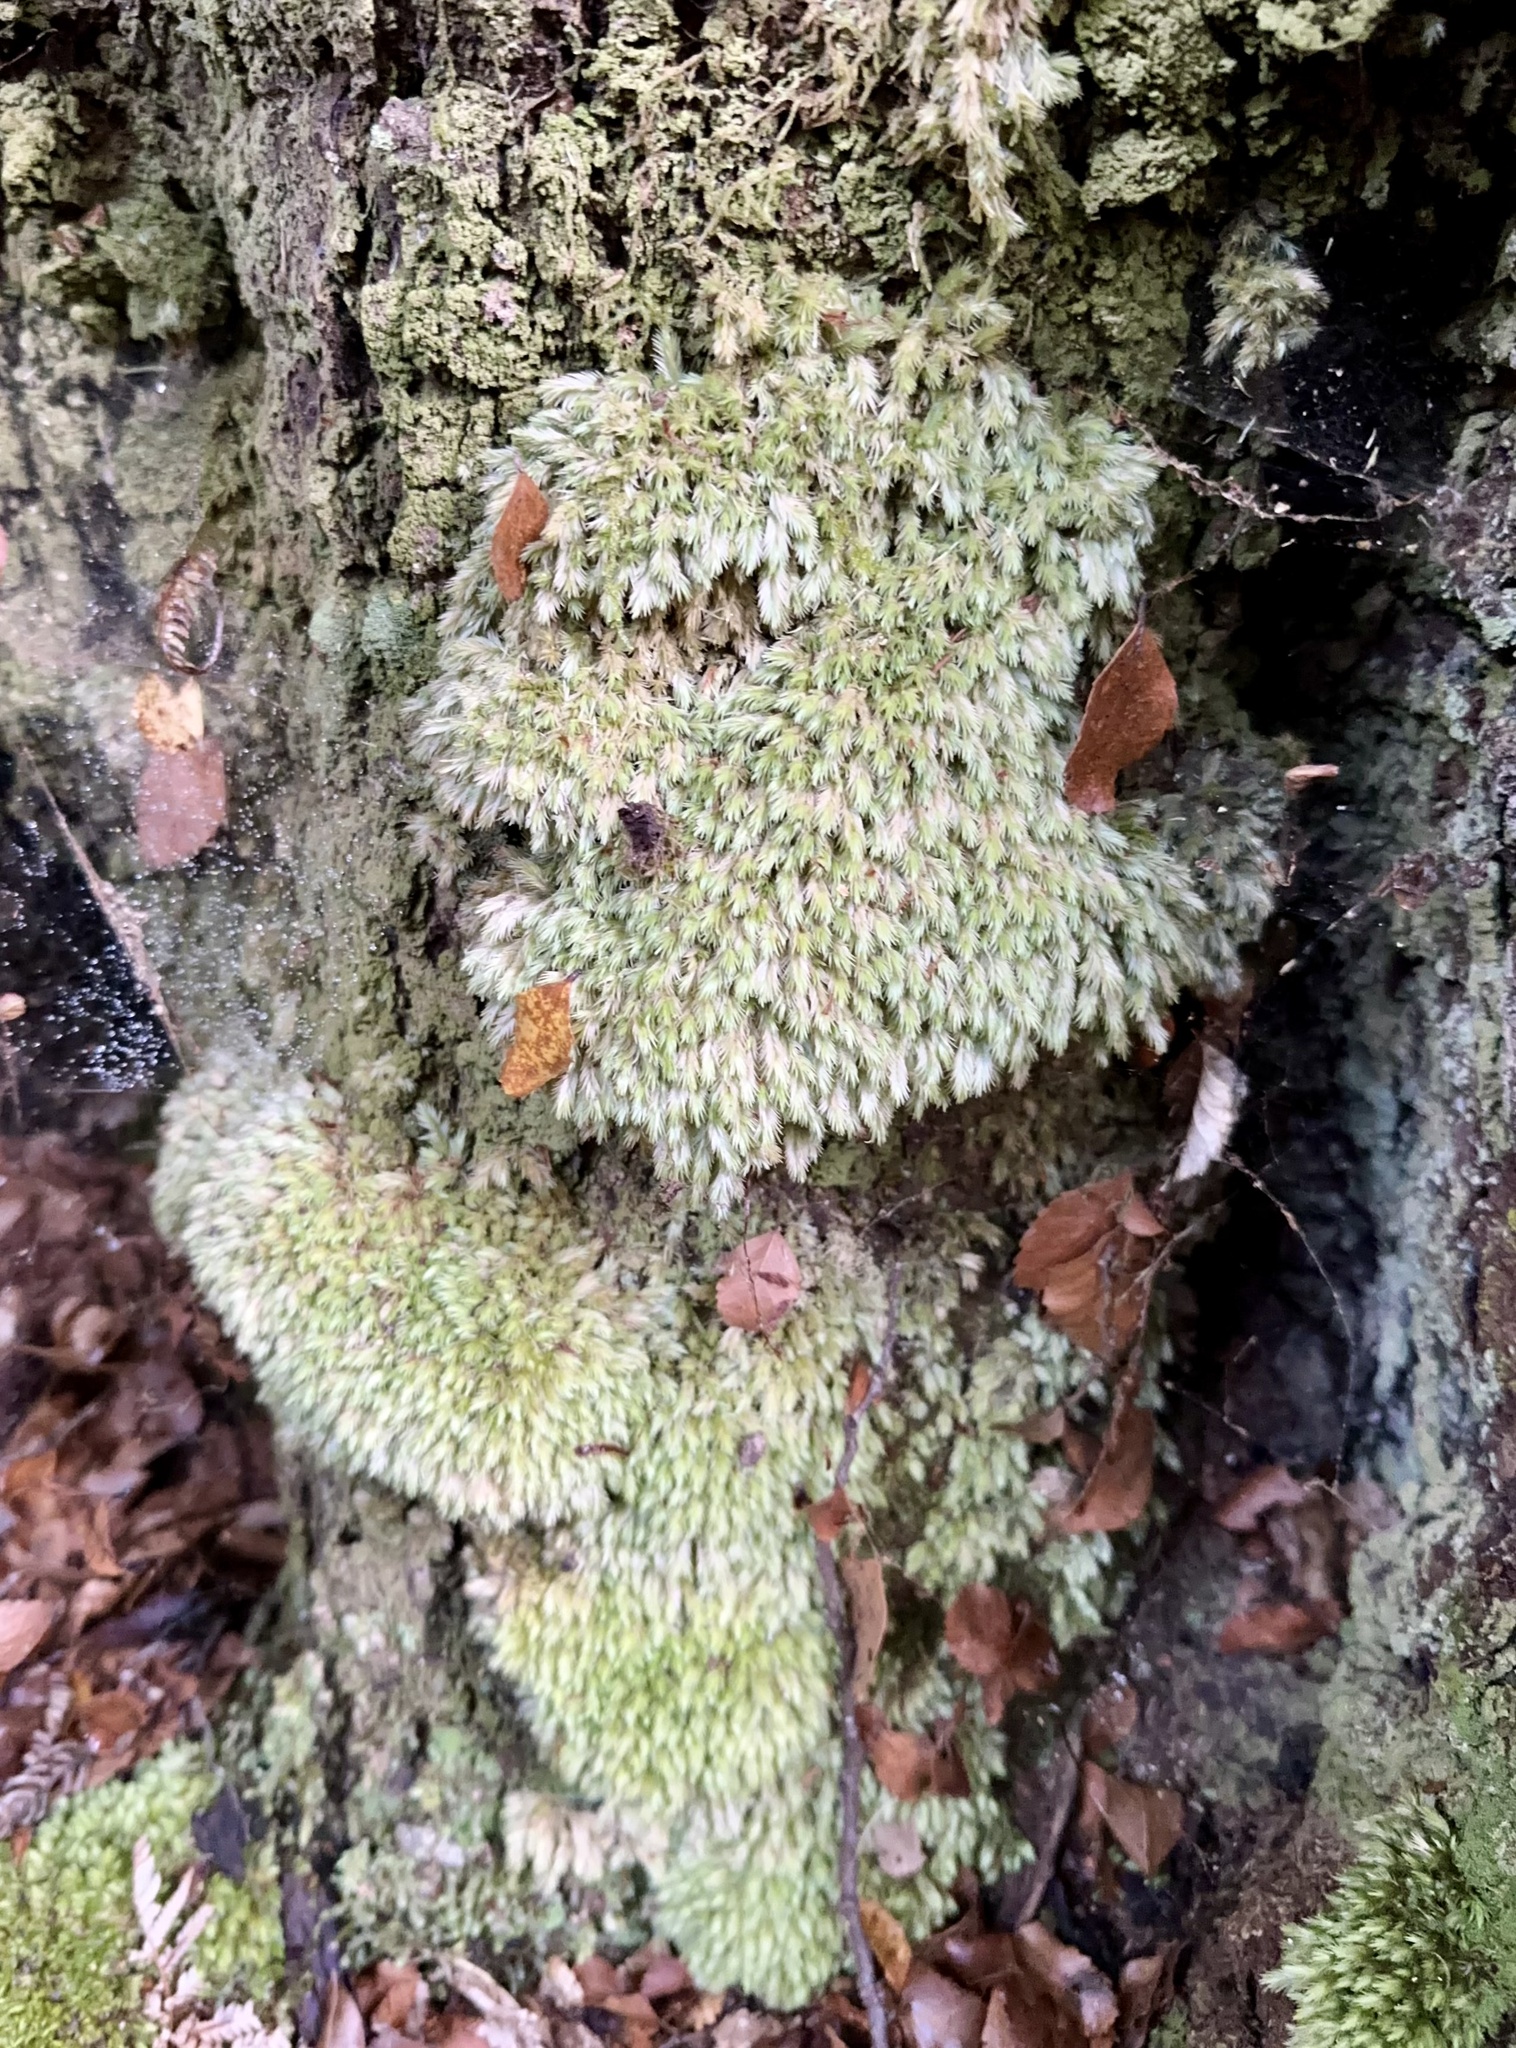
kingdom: Plantae
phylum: Bryophyta
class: Bryopsida
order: Dicranales
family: Leucobryaceae
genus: Leucobryum
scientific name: Leucobryum javense
